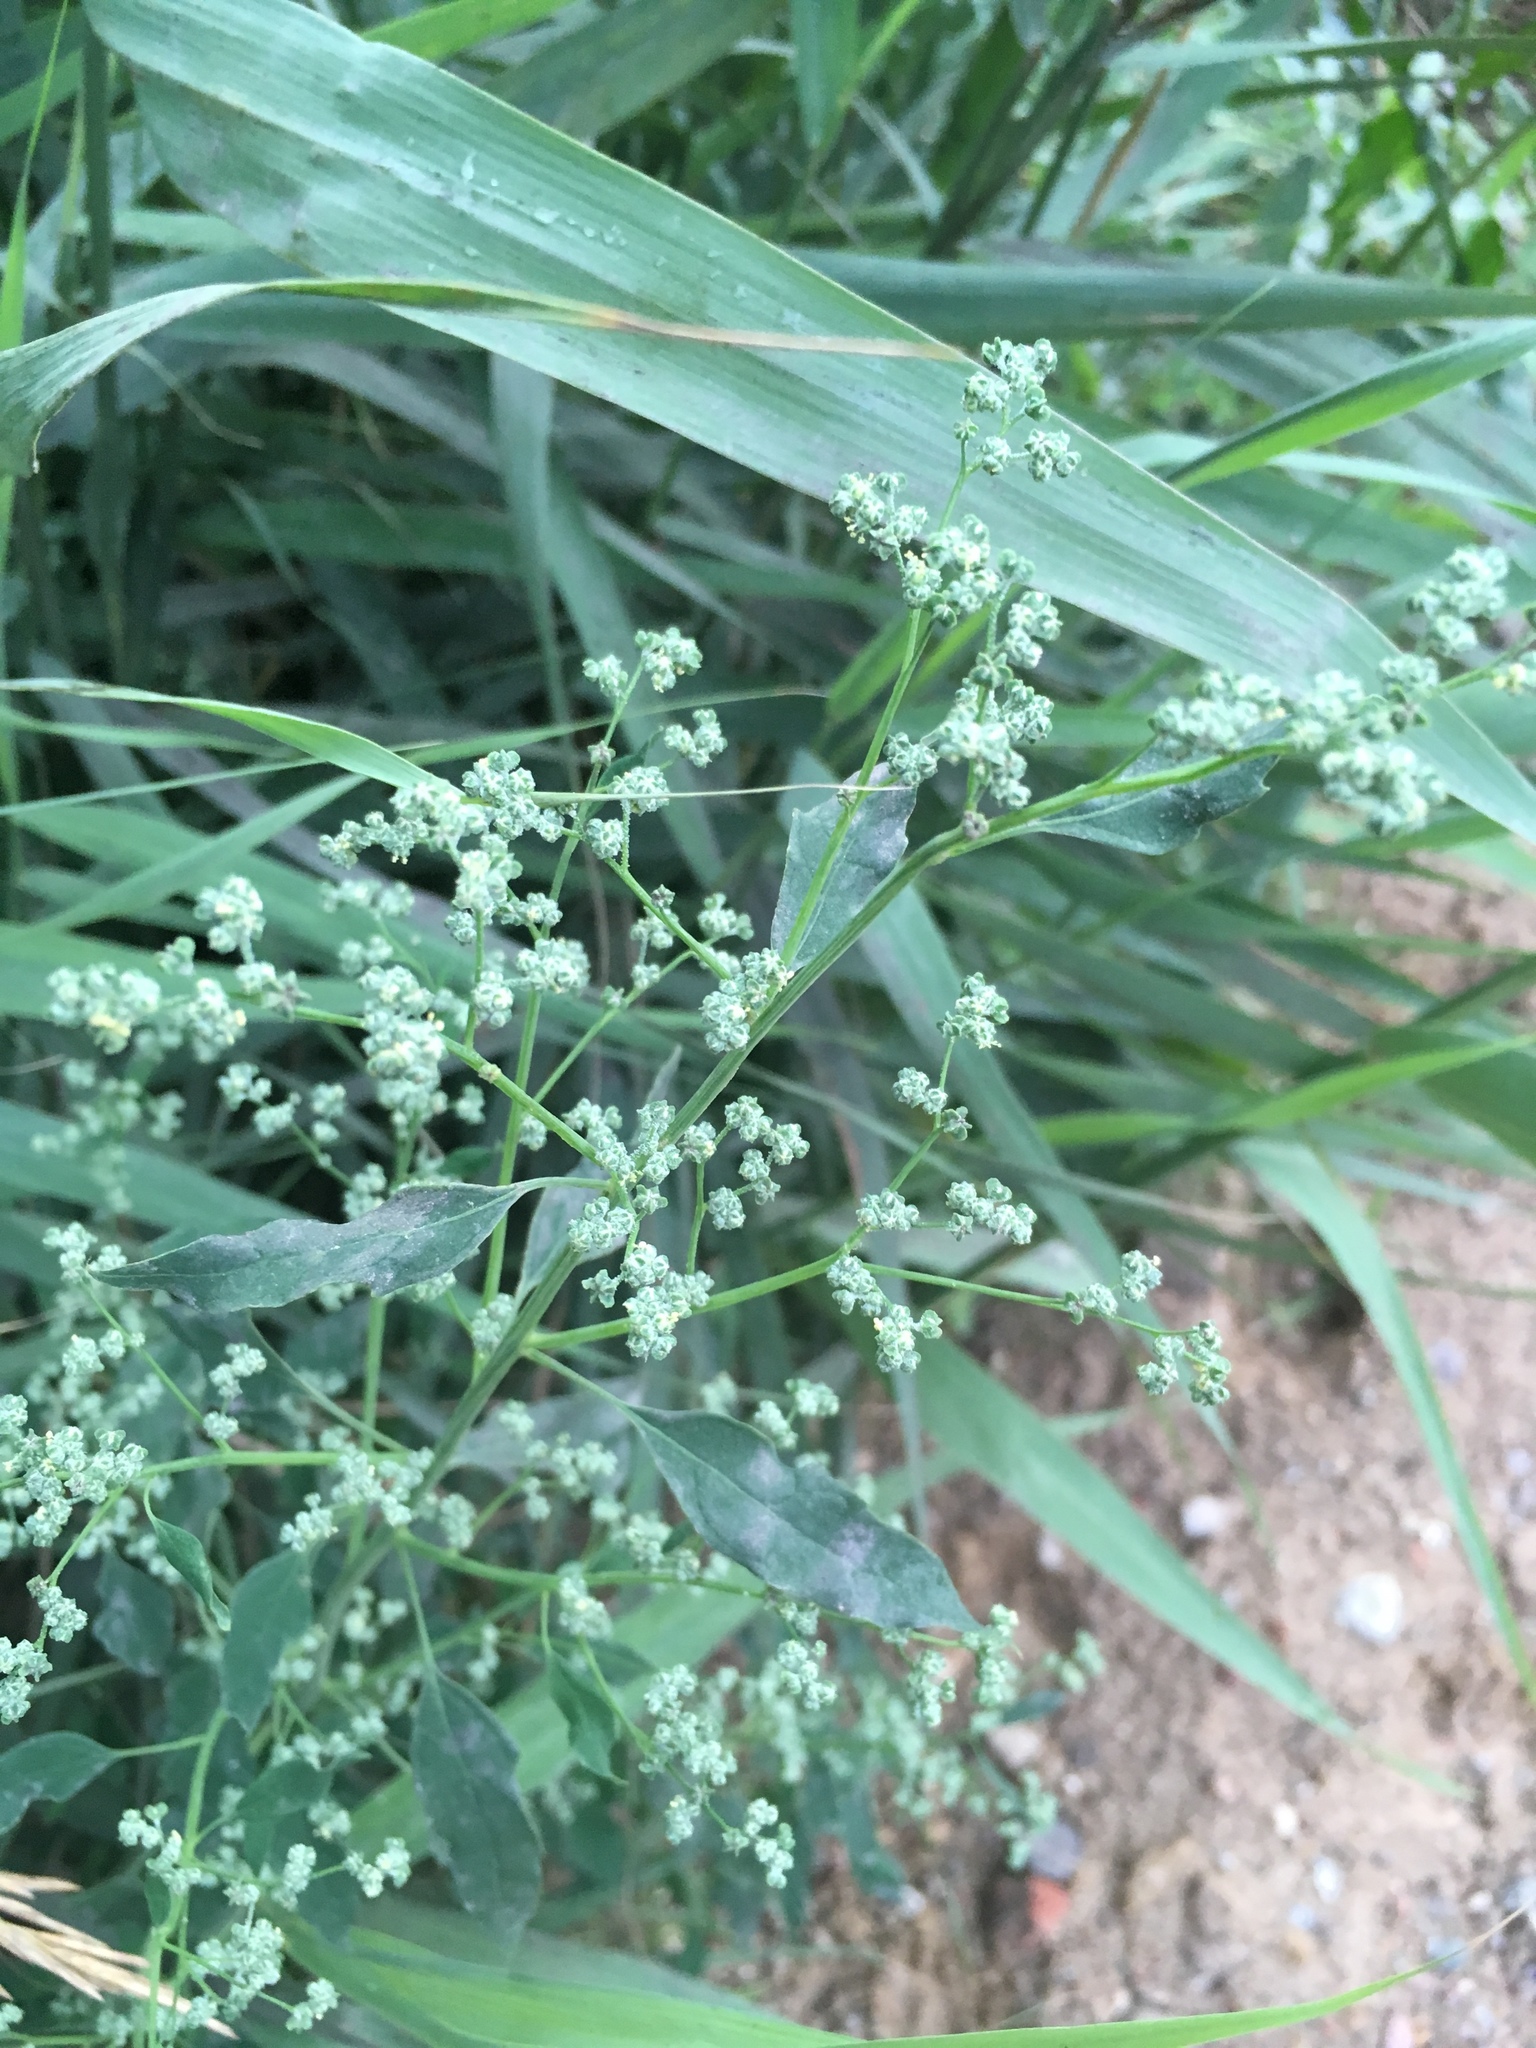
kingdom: Plantae
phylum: Tracheophyta
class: Magnoliopsida
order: Caryophyllales
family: Amaranthaceae
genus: Chenopodium
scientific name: Chenopodium album
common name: Fat-hen
